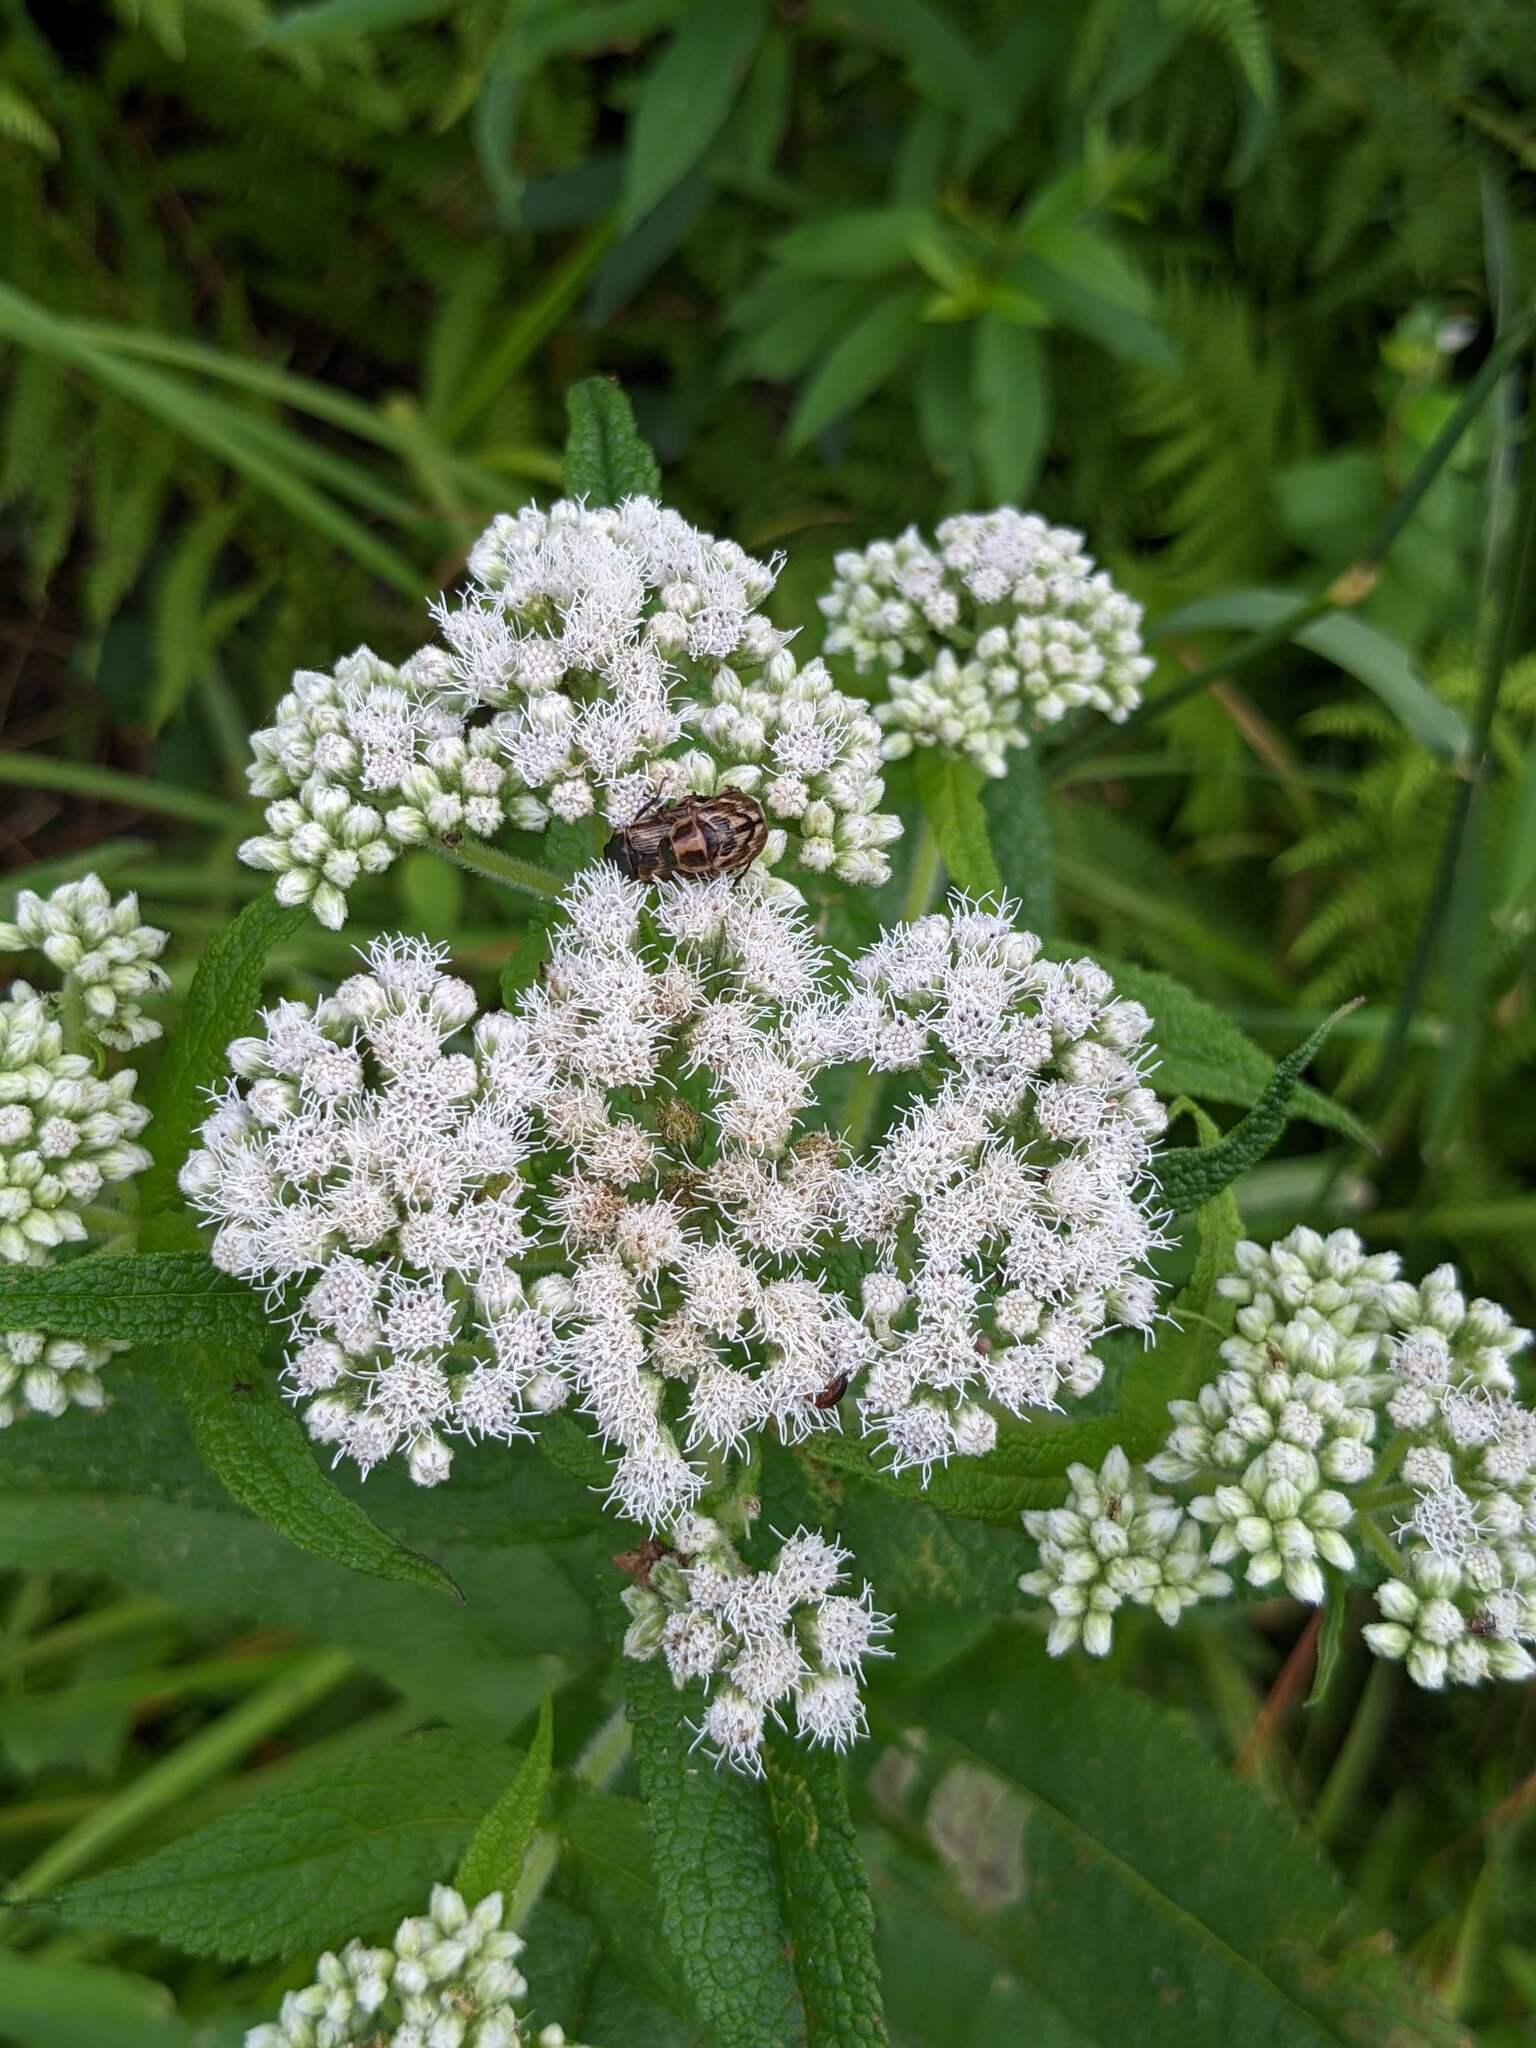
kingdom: Animalia
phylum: Arthropoda
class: Insecta
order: Coleoptera
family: Scarabaeidae
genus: Exomala
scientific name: Exomala orientalis
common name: Oriental beetle
